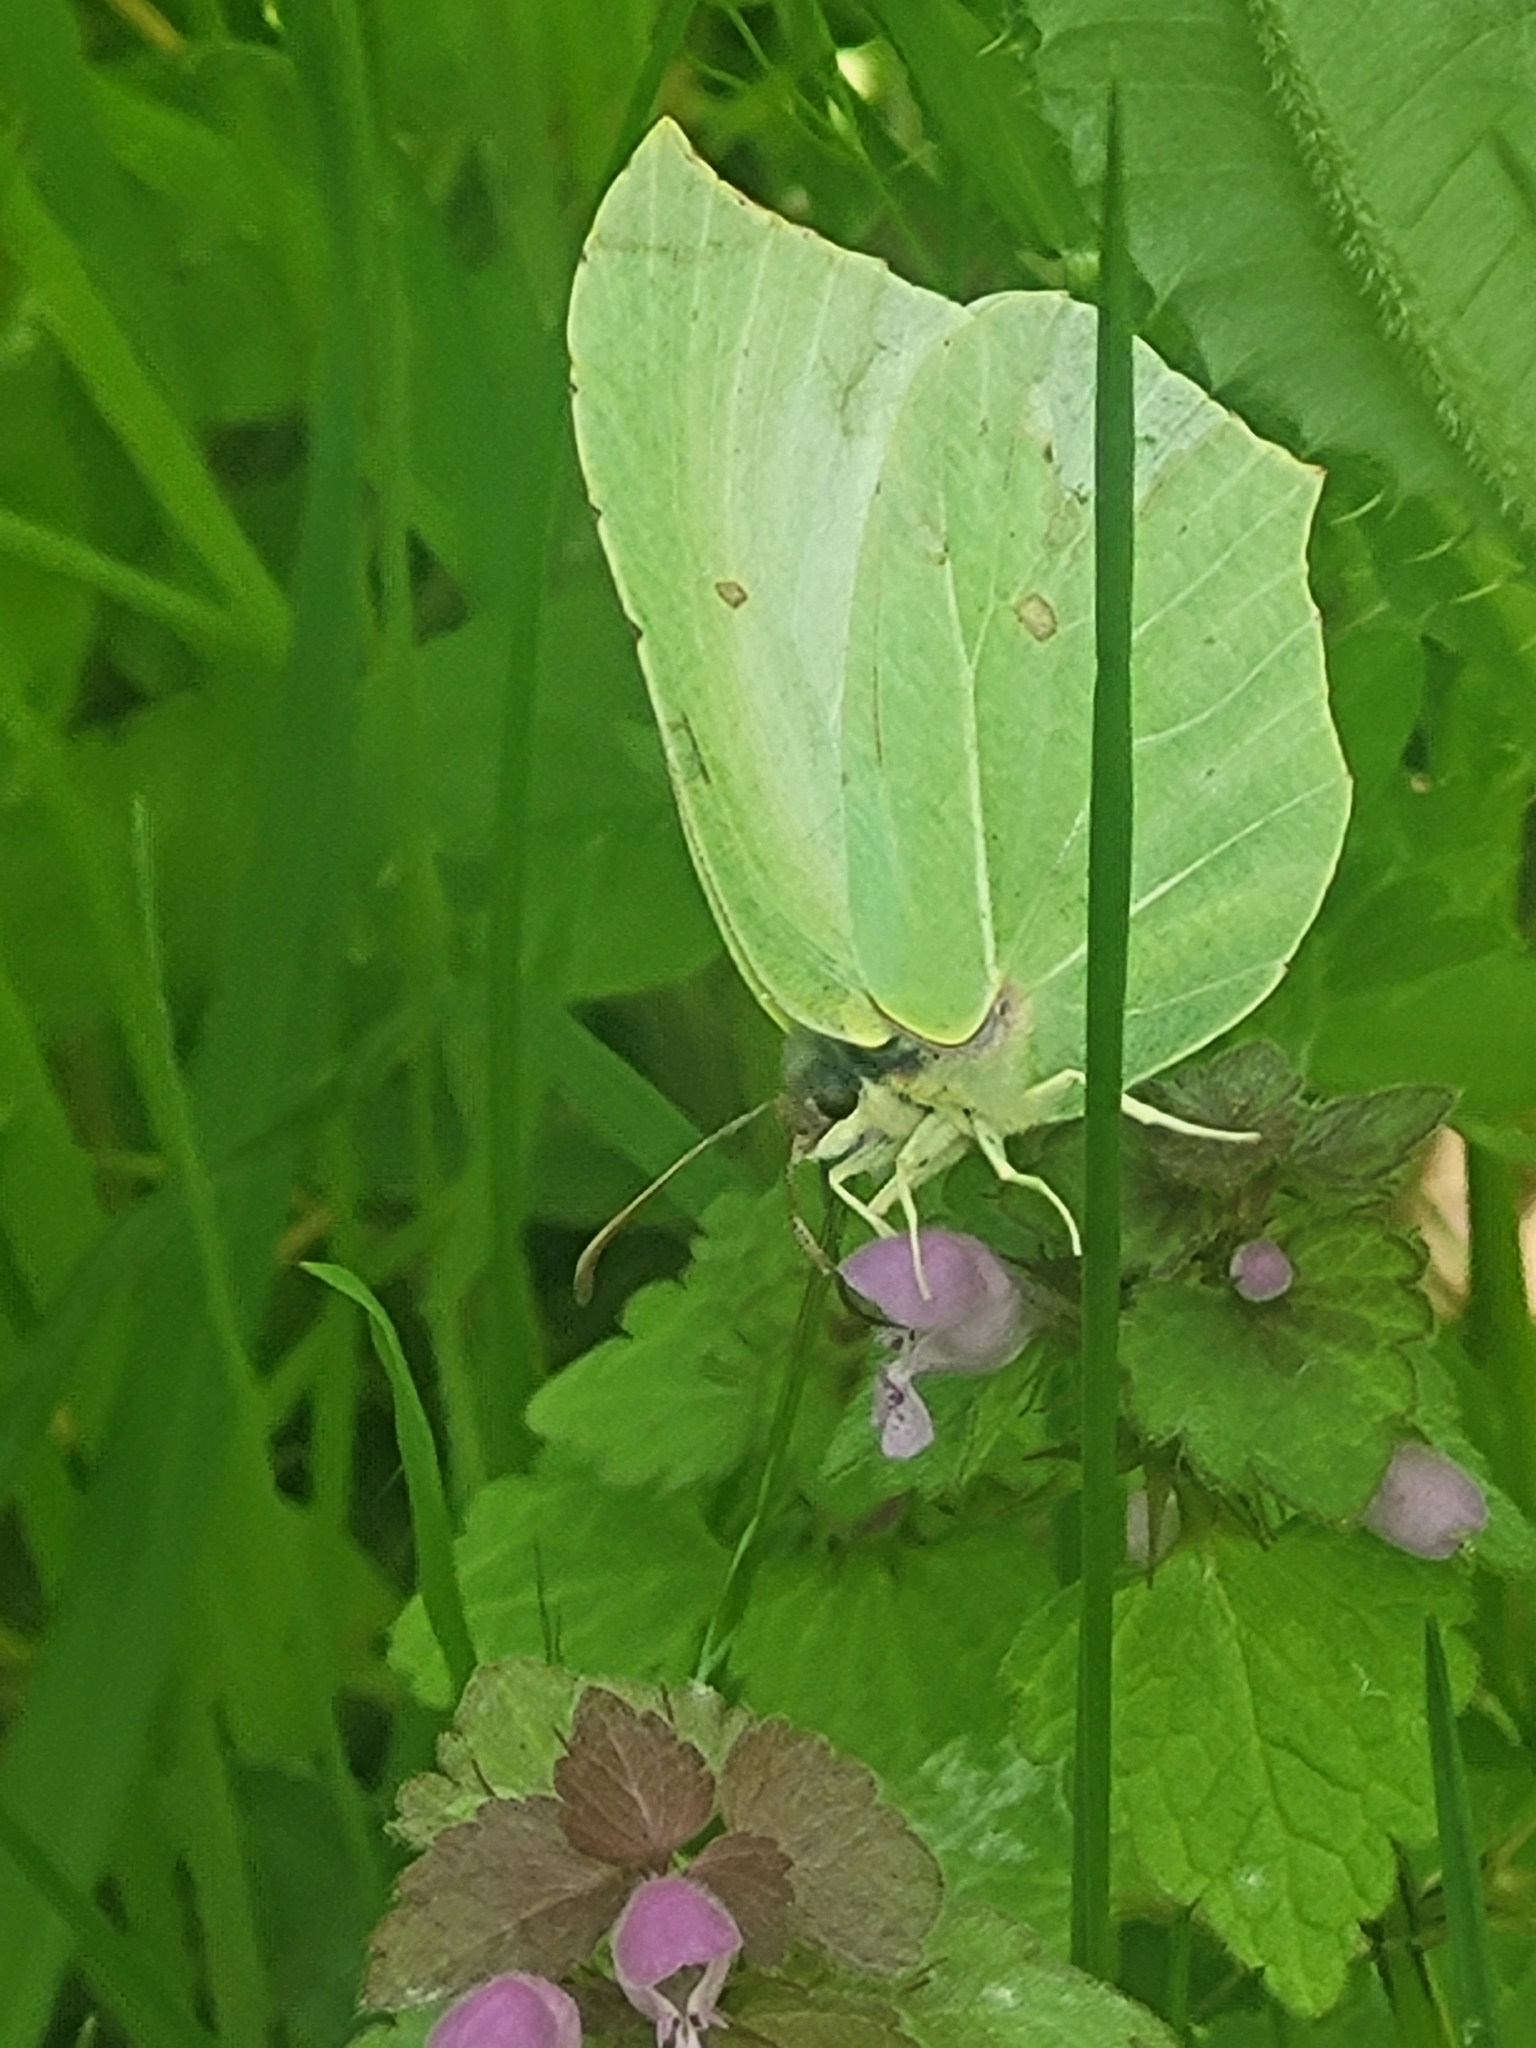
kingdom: Animalia
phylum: Arthropoda
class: Insecta
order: Lepidoptera
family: Pieridae
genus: Gonepteryx
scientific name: Gonepteryx rhamni
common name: Brimstone
